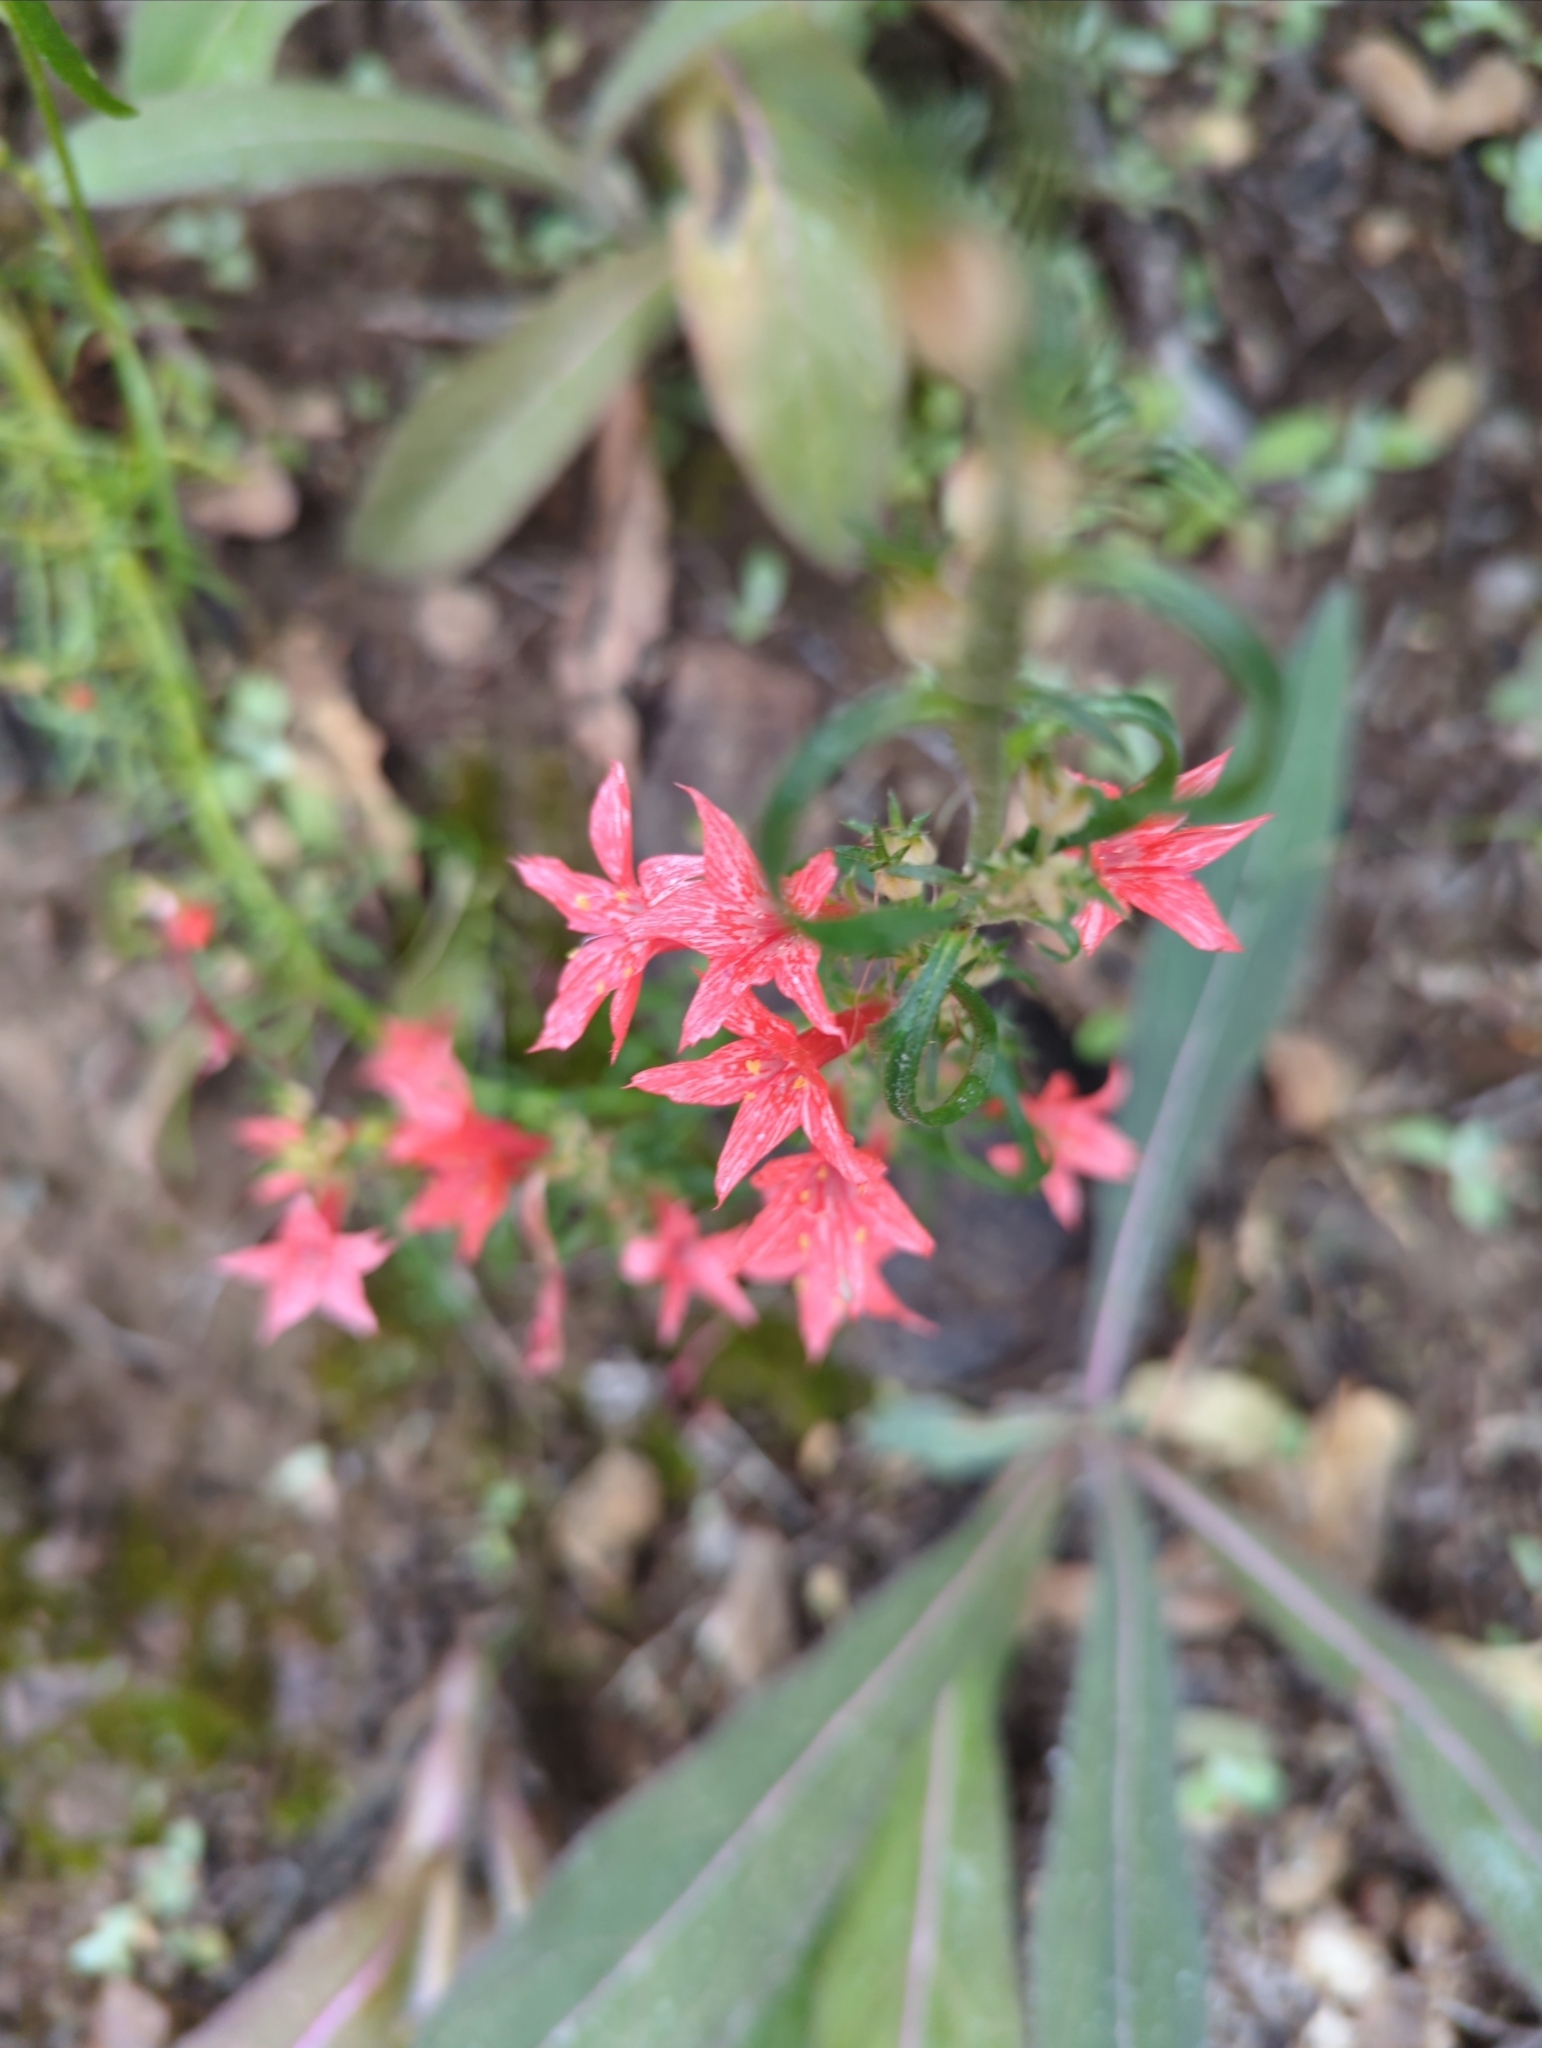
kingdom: Plantae
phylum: Tracheophyta
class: Magnoliopsida
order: Ericales
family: Polemoniaceae
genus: Ipomopsis
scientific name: Ipomopsis aggregata
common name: Scarlet gilia
